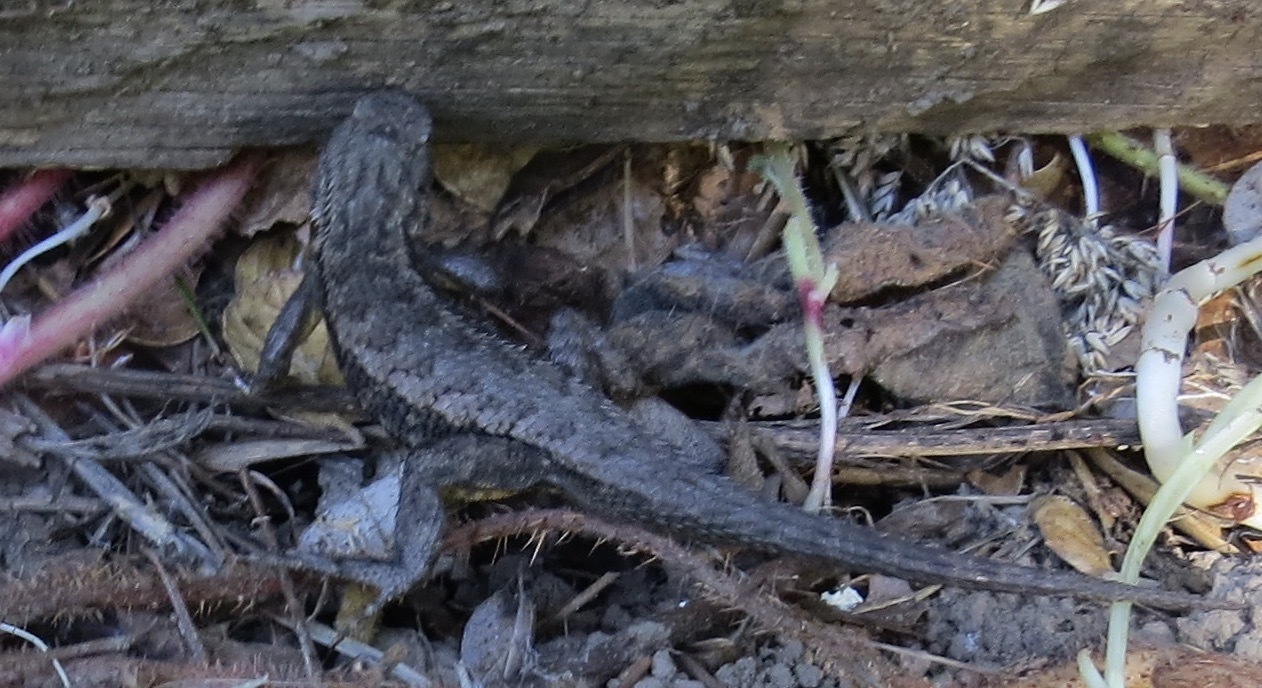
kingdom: Animalia
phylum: Chordata
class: Squamata
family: Phrynosomatidae
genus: Sceloporus
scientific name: Sceloporus occidentalis
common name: Western fence lizard
